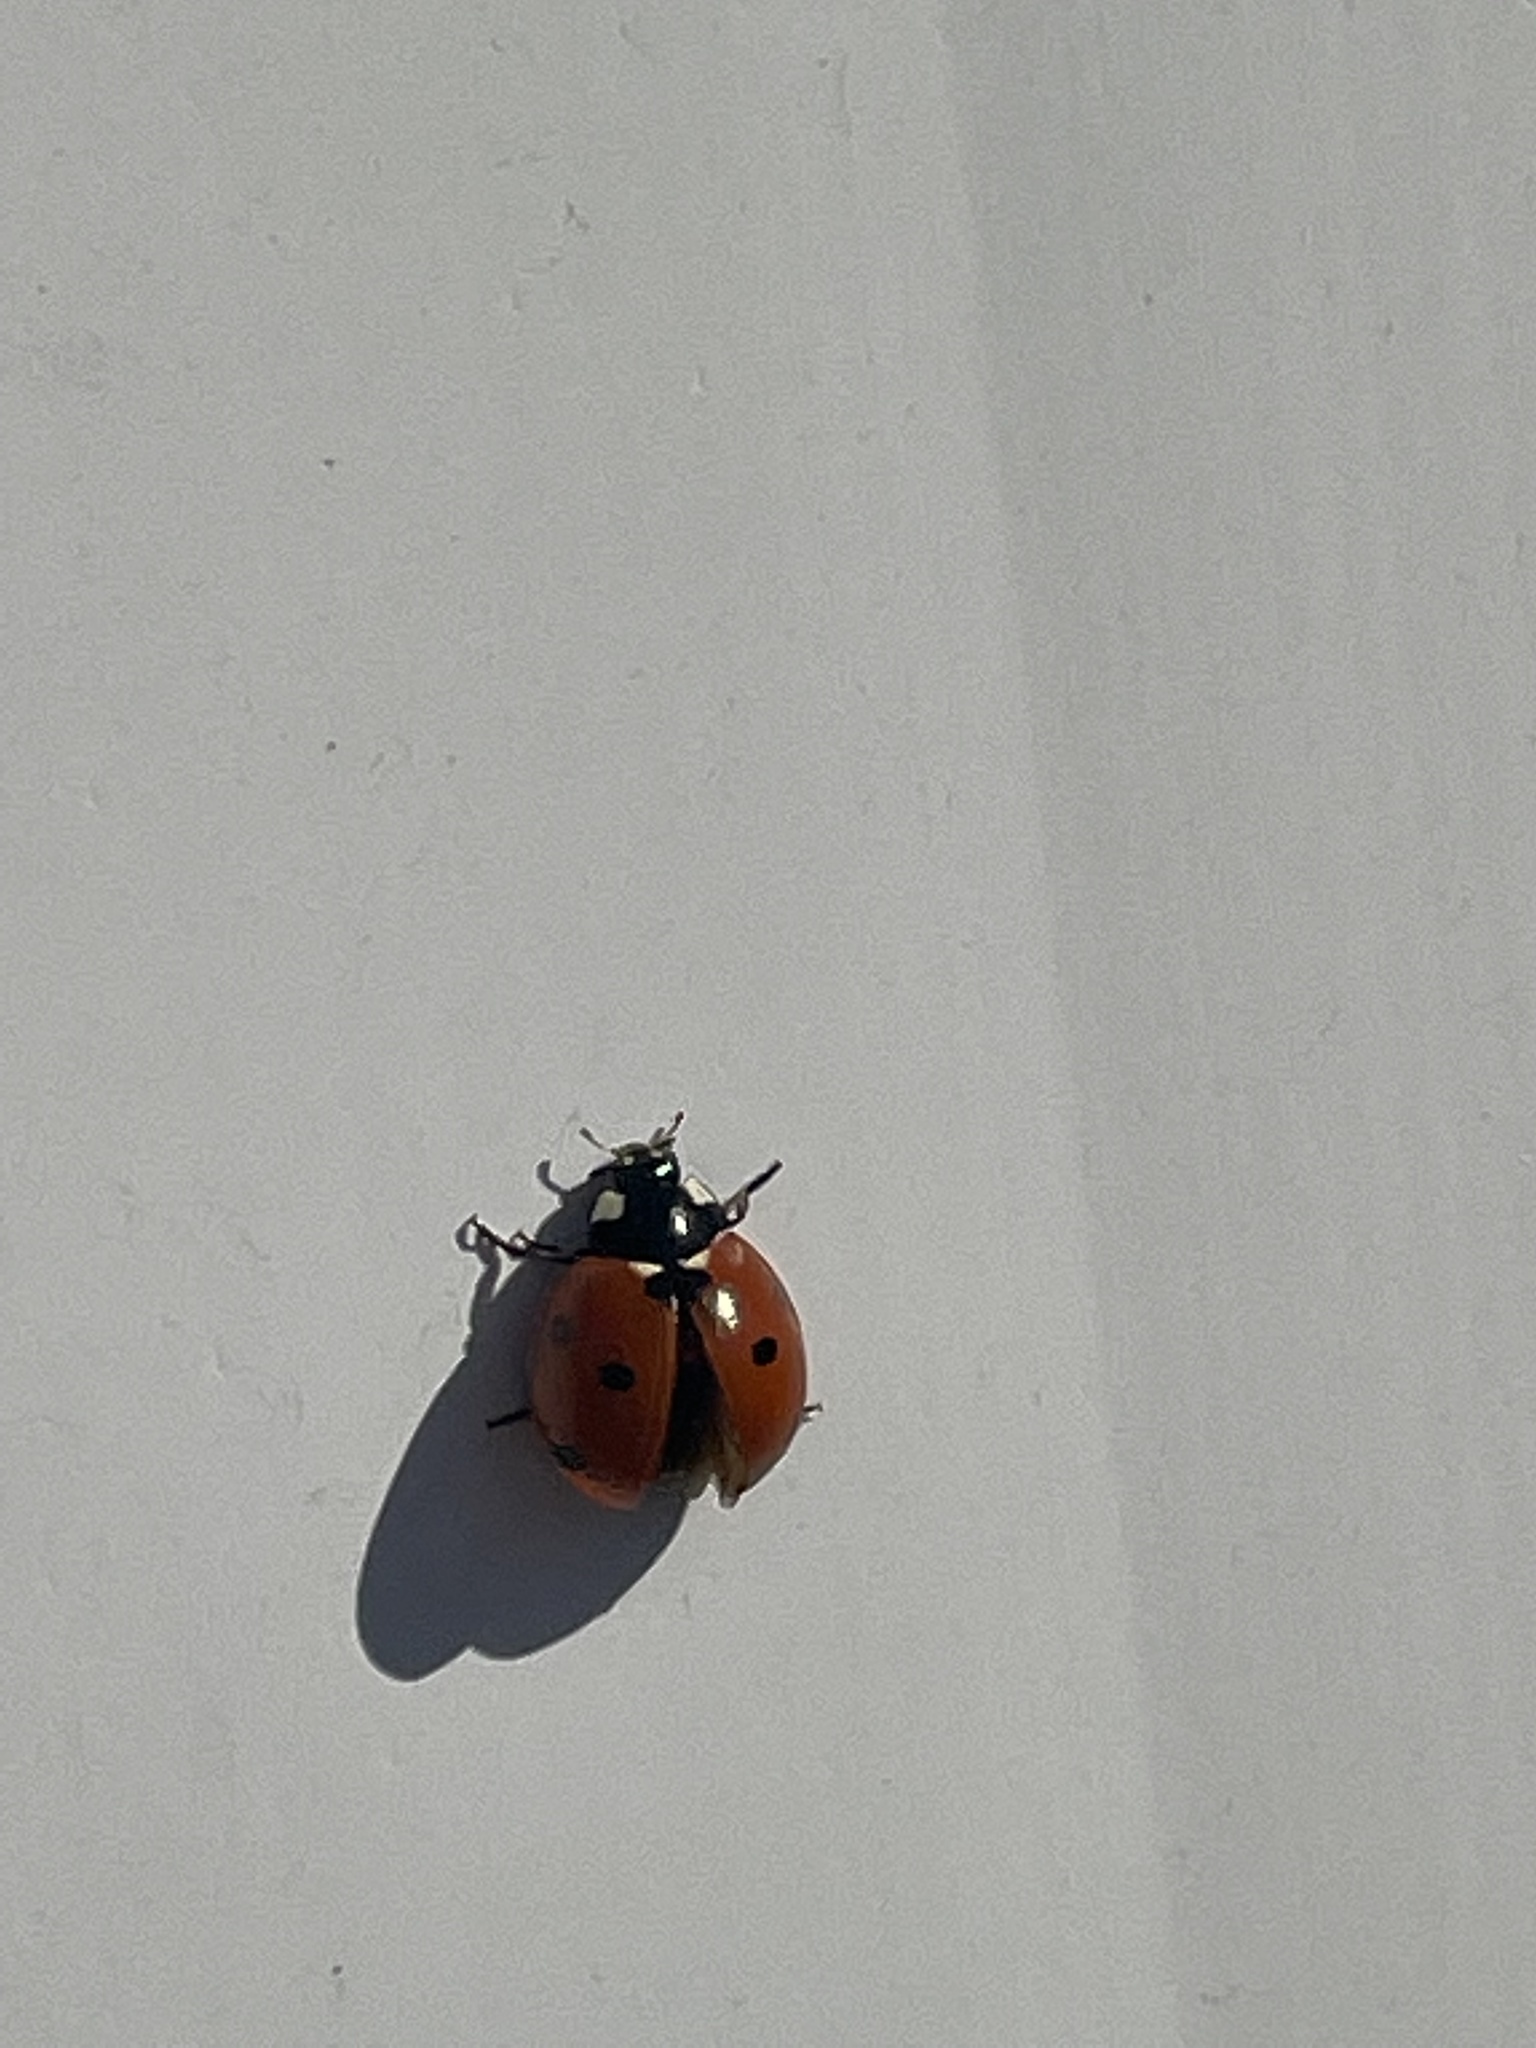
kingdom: Animalia
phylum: Arthropoda
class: Insecta
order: Coleoptera
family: Coccinellidae
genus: Coccinella
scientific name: Coccinella septempunctata
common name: Sevenspotted lady beetle
